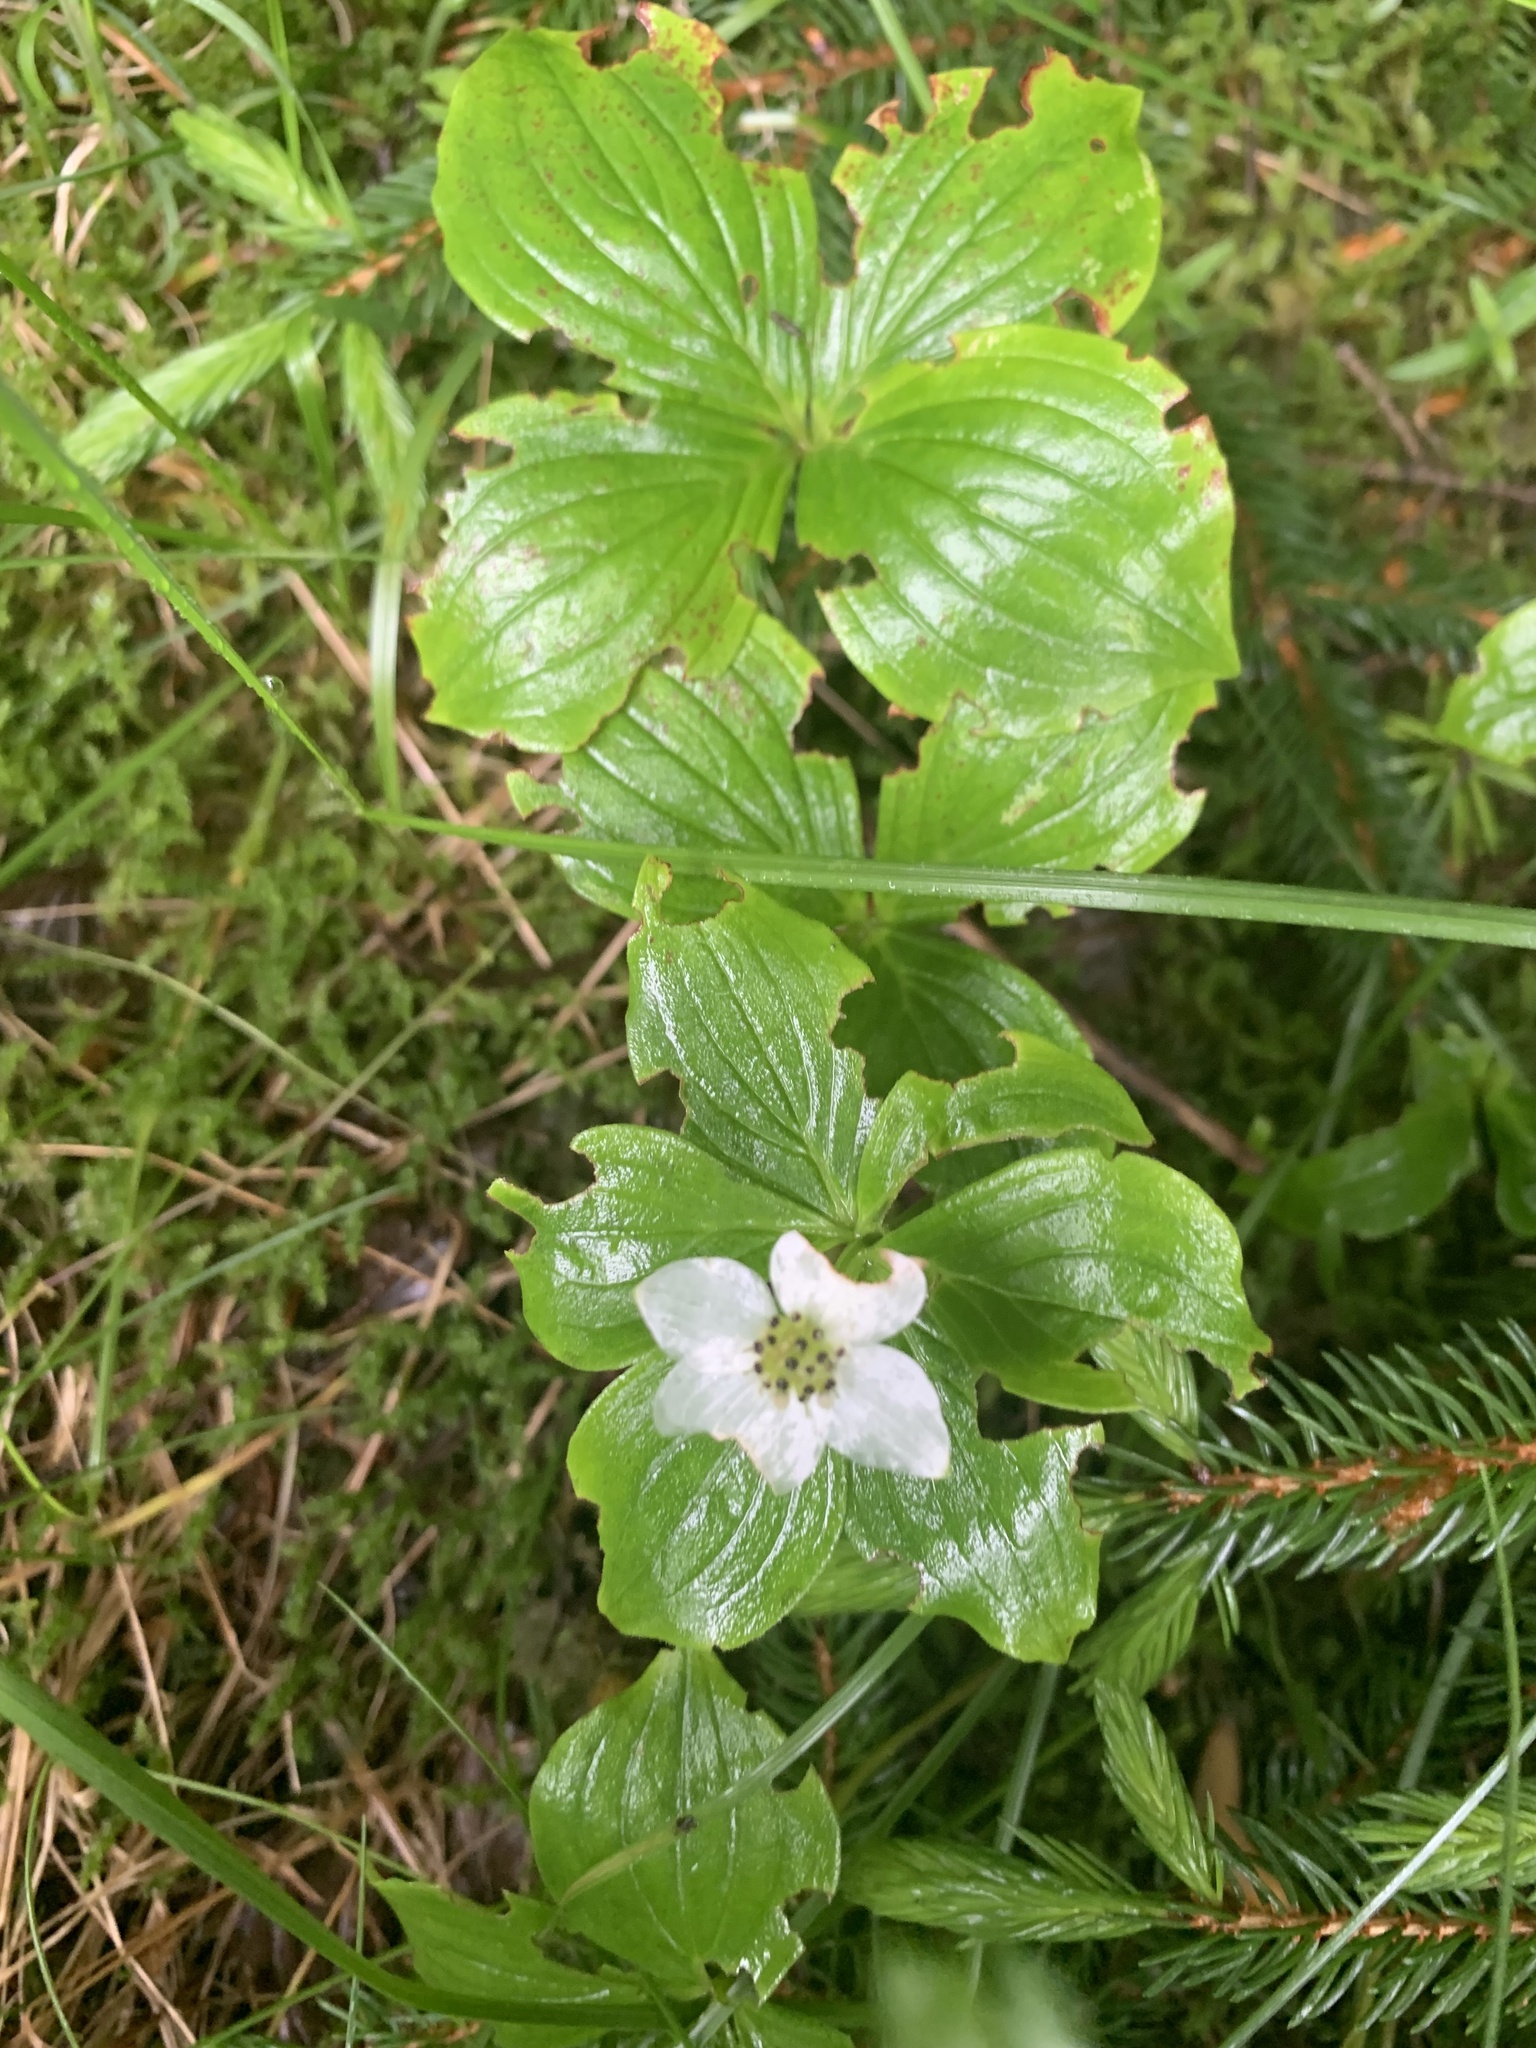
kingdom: Plantae
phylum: Tracheophyta
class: Magnoliopsida
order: Cornales
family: Cornaceae
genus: Cornus
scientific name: Cornus canadensis
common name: Creeping dogwood
